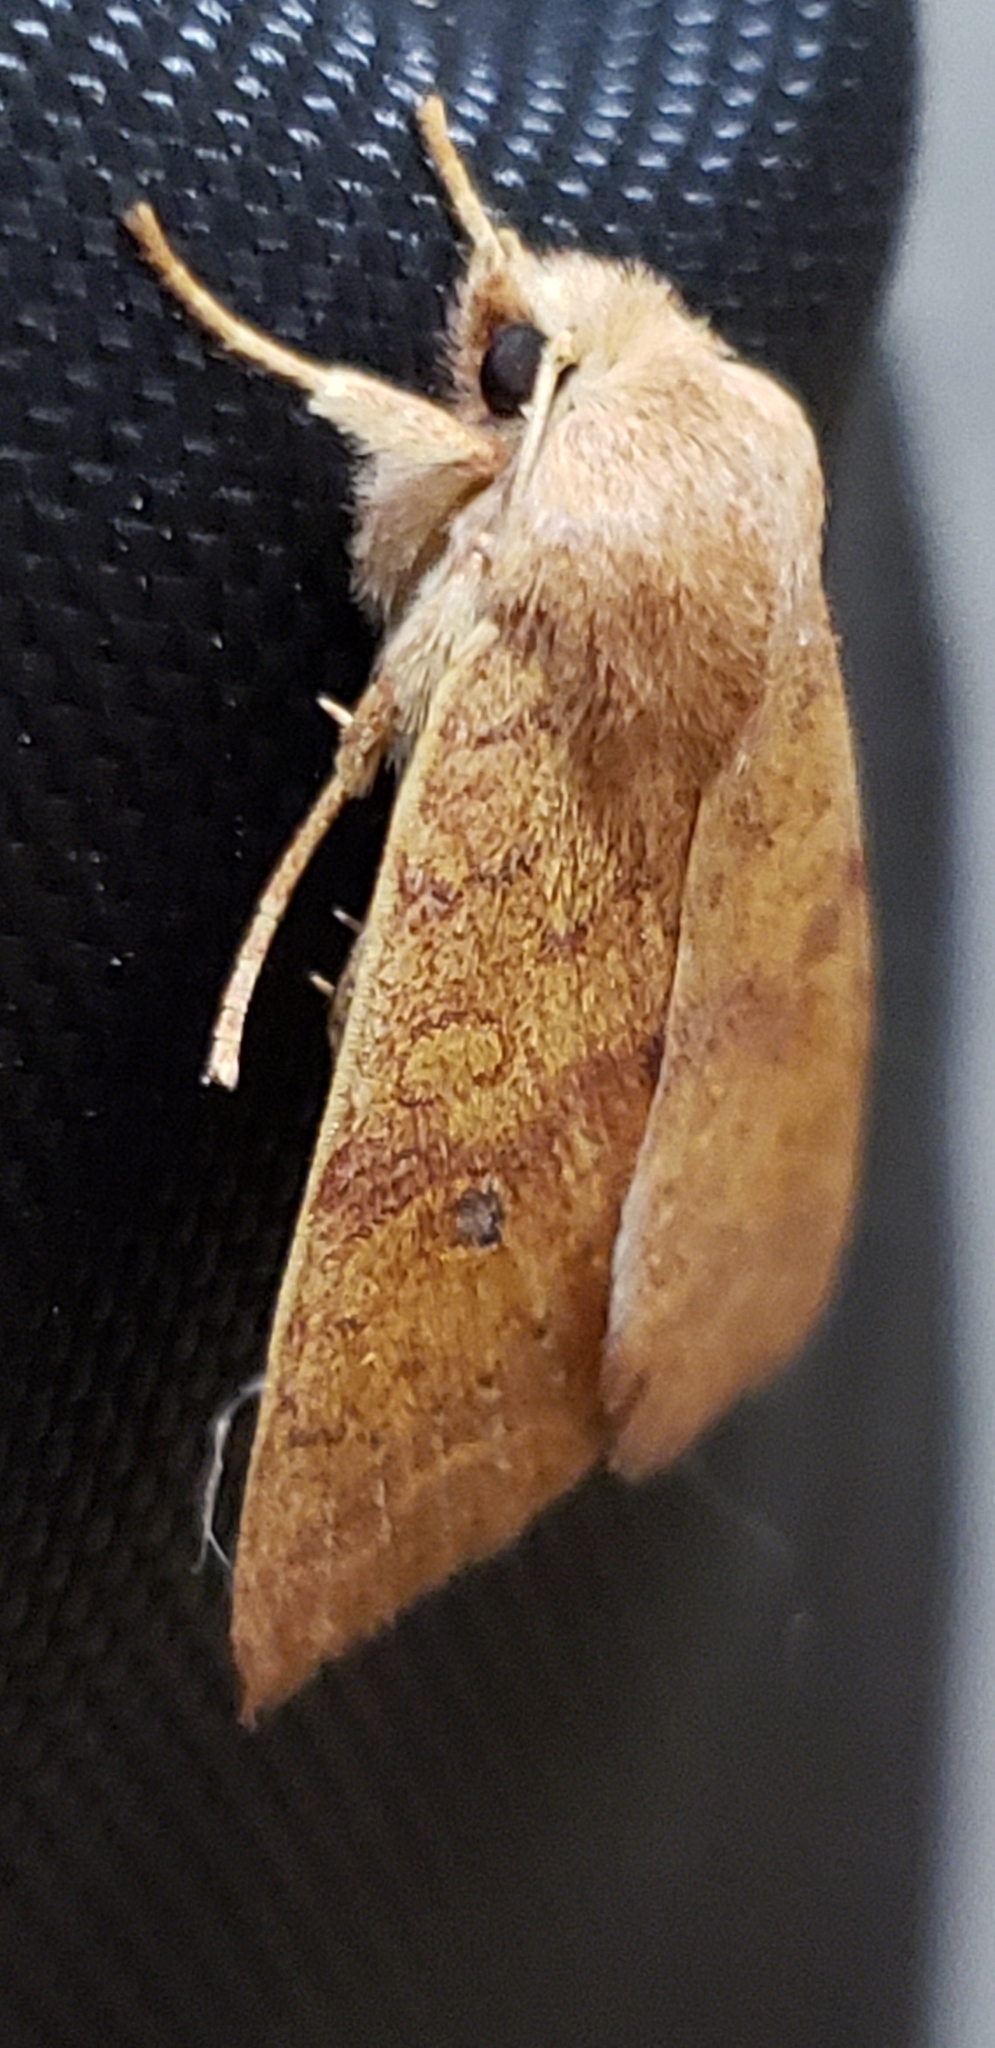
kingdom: Animalia
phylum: Arthropoda
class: Insecta
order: Lepidoptera
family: Noctuidae
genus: Agrochola
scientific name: Agrochola bicolorago
